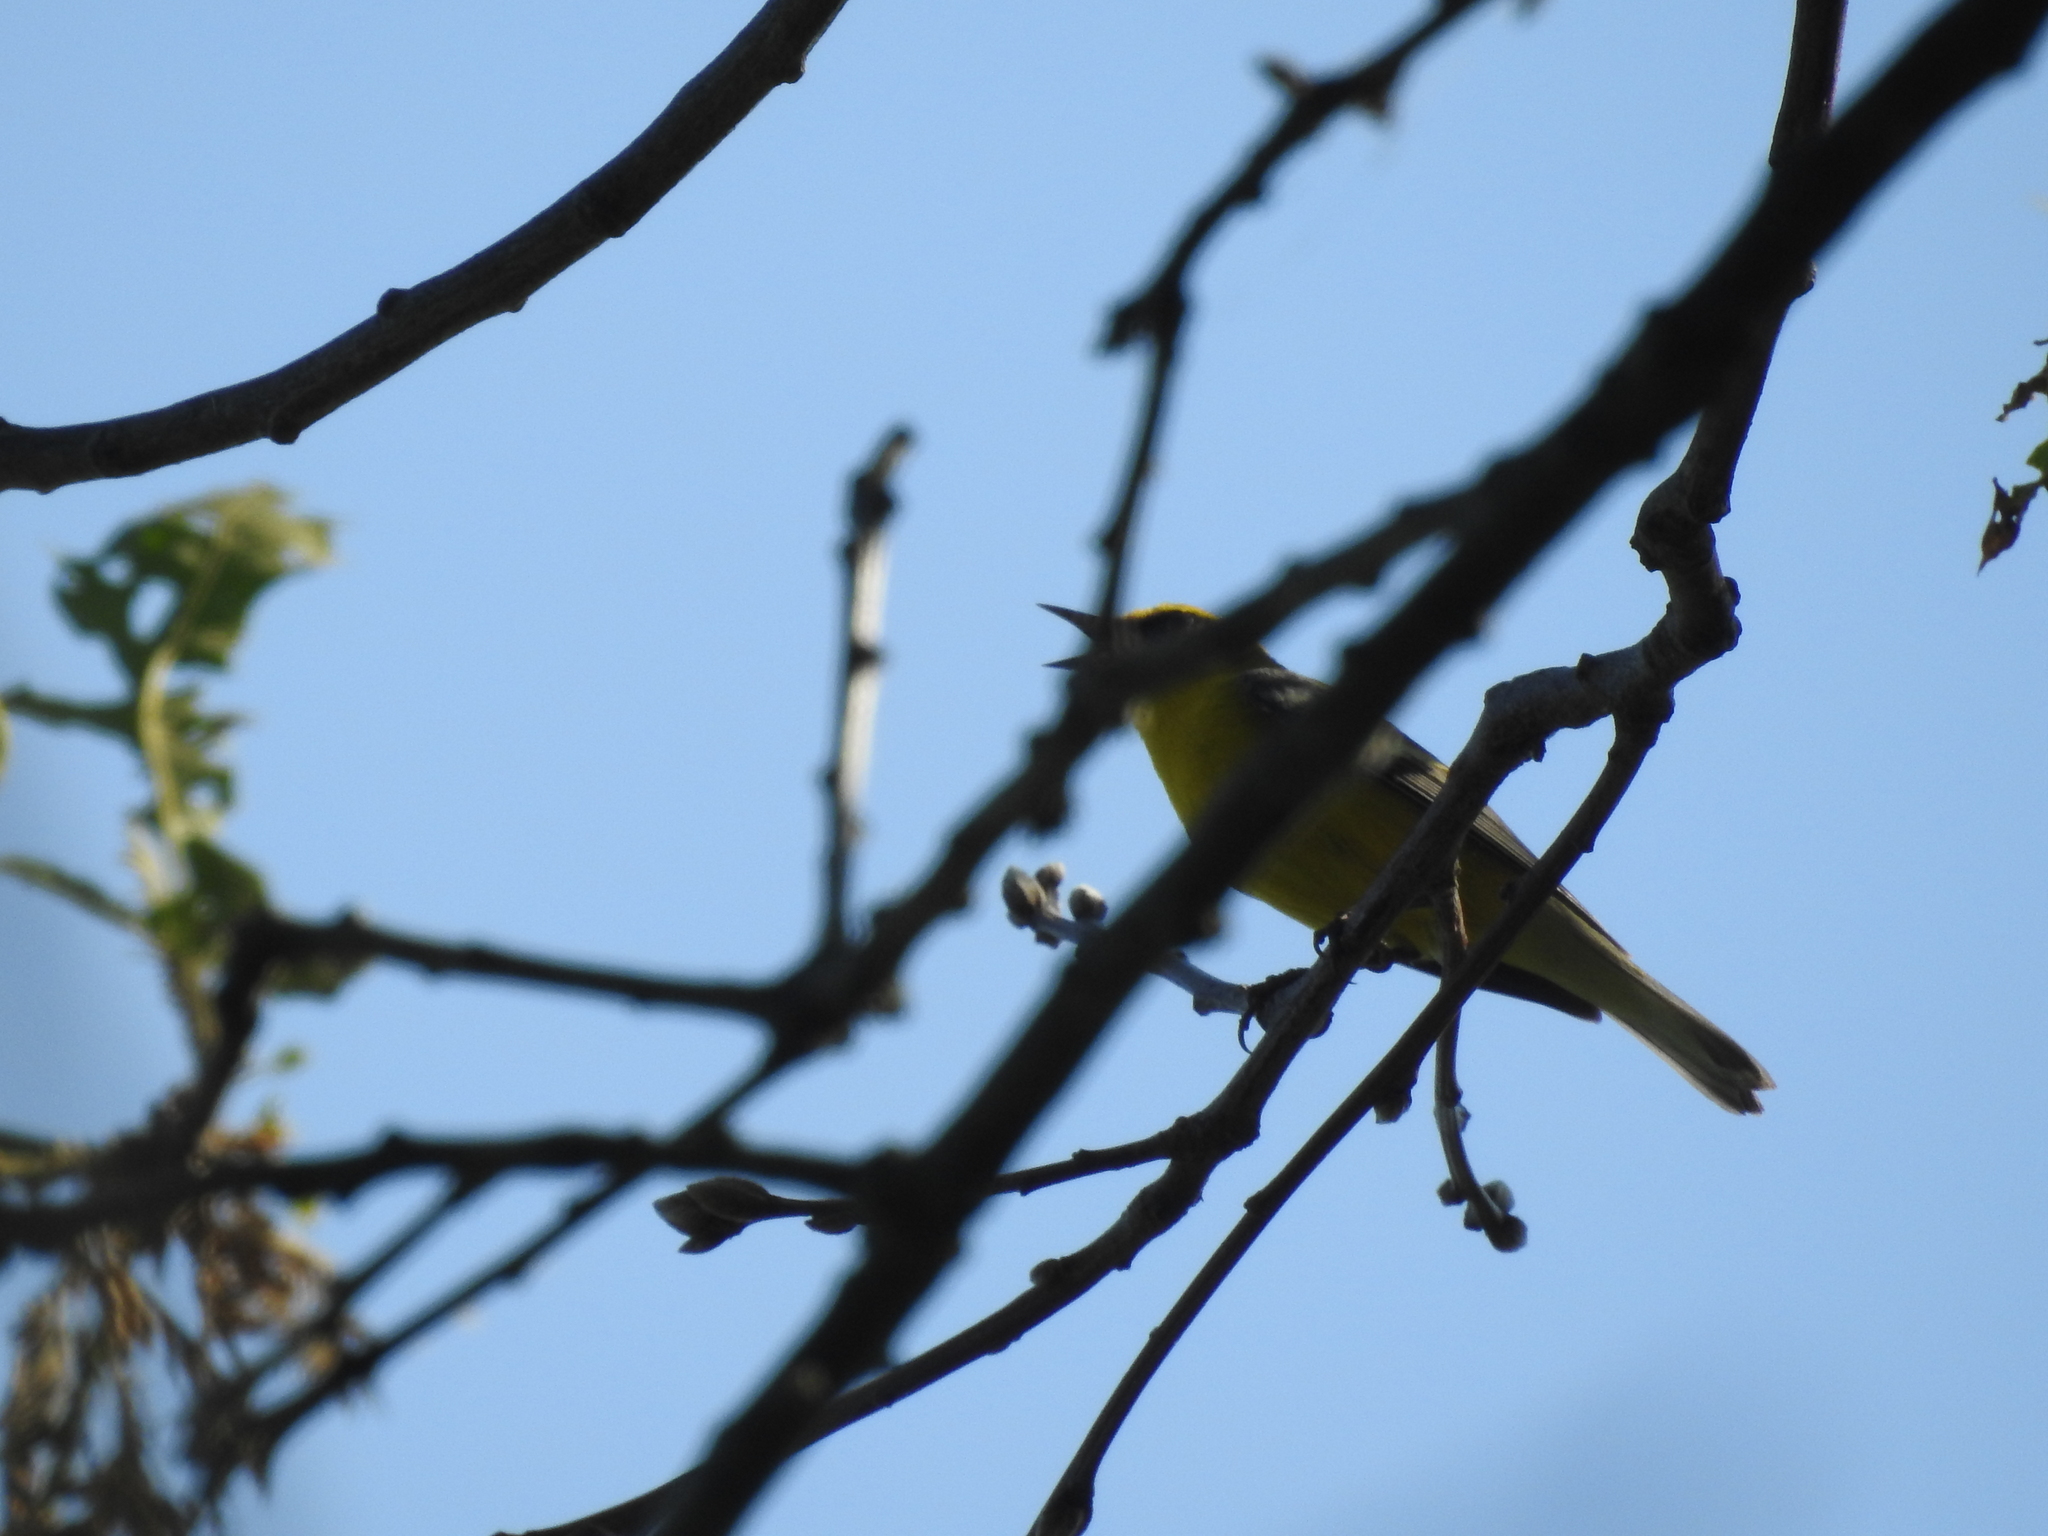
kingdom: Animalia
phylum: Chordata
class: Aves
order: Passeriformes
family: Parulidae
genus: Vermivora
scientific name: Vermivora cyanoptera
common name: Blue-winged warbler
